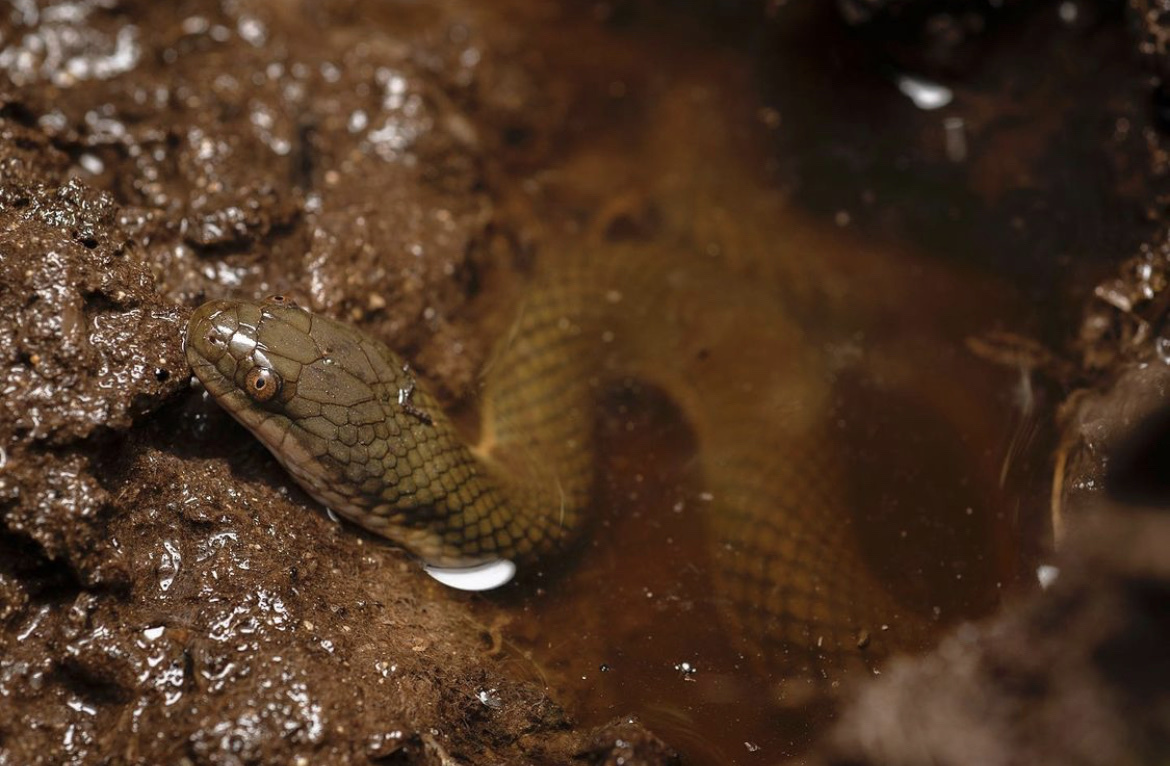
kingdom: Animalia
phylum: Chordata
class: Squamata
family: Homalopsidae
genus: Hypsiscopus
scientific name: Hypsiscopus
